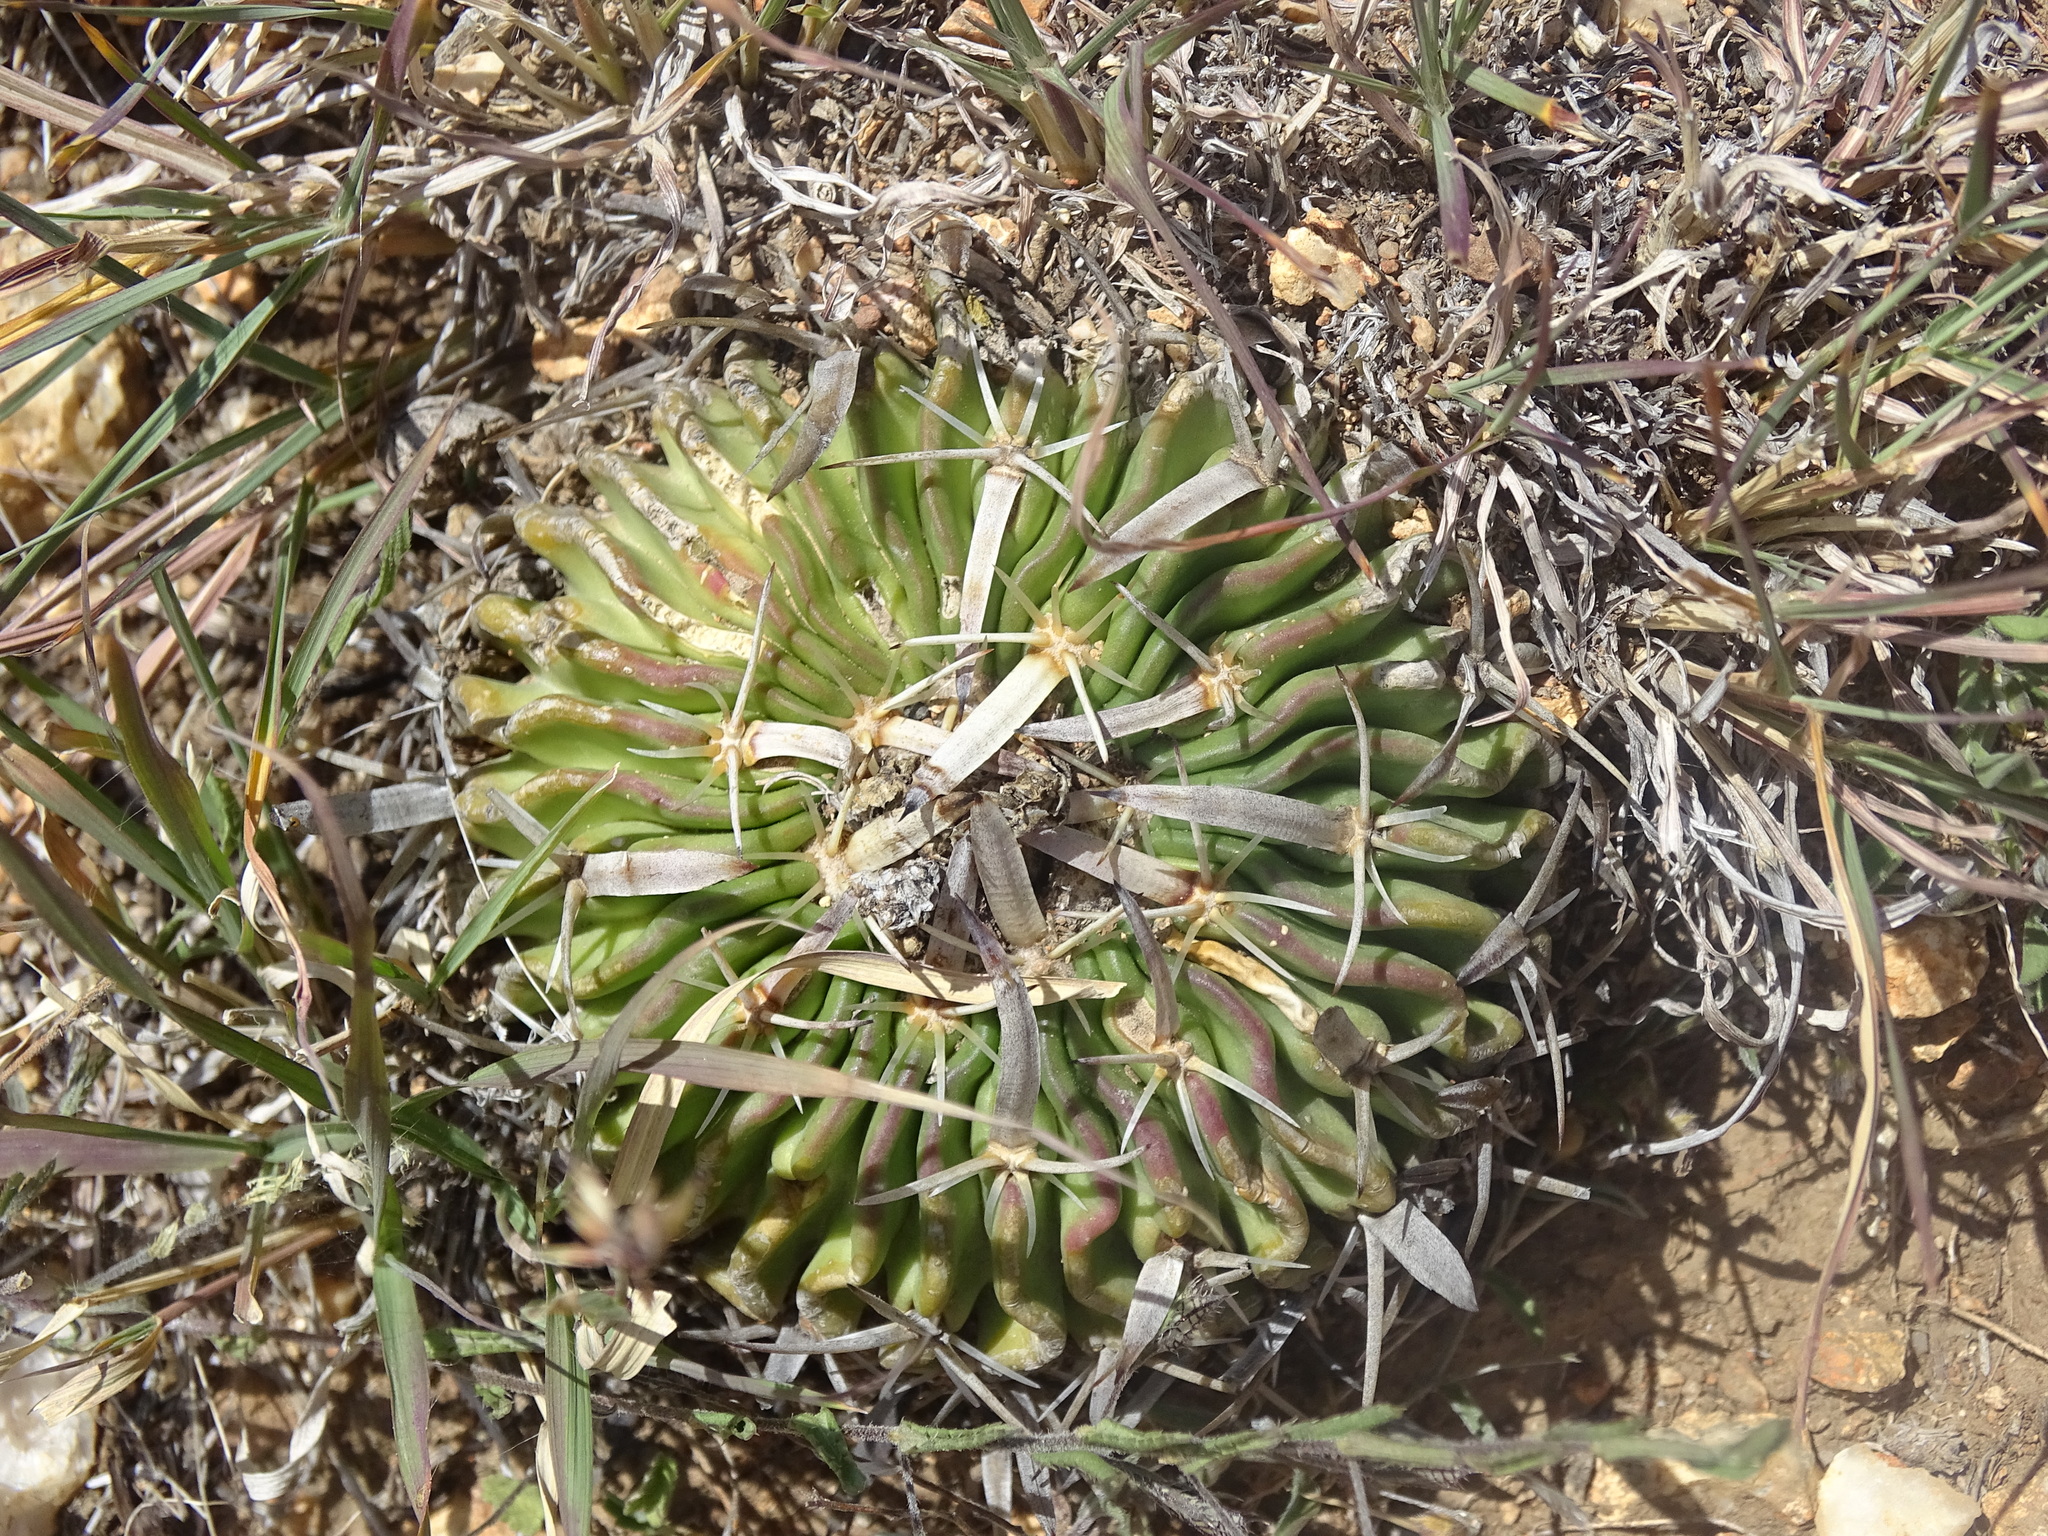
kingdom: Plantae
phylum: Tracheophyta
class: Magnoliopsida
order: Caryophyllales
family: Cactaceae
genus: Stenocactus
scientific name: Stenocactus phyllacanthus
